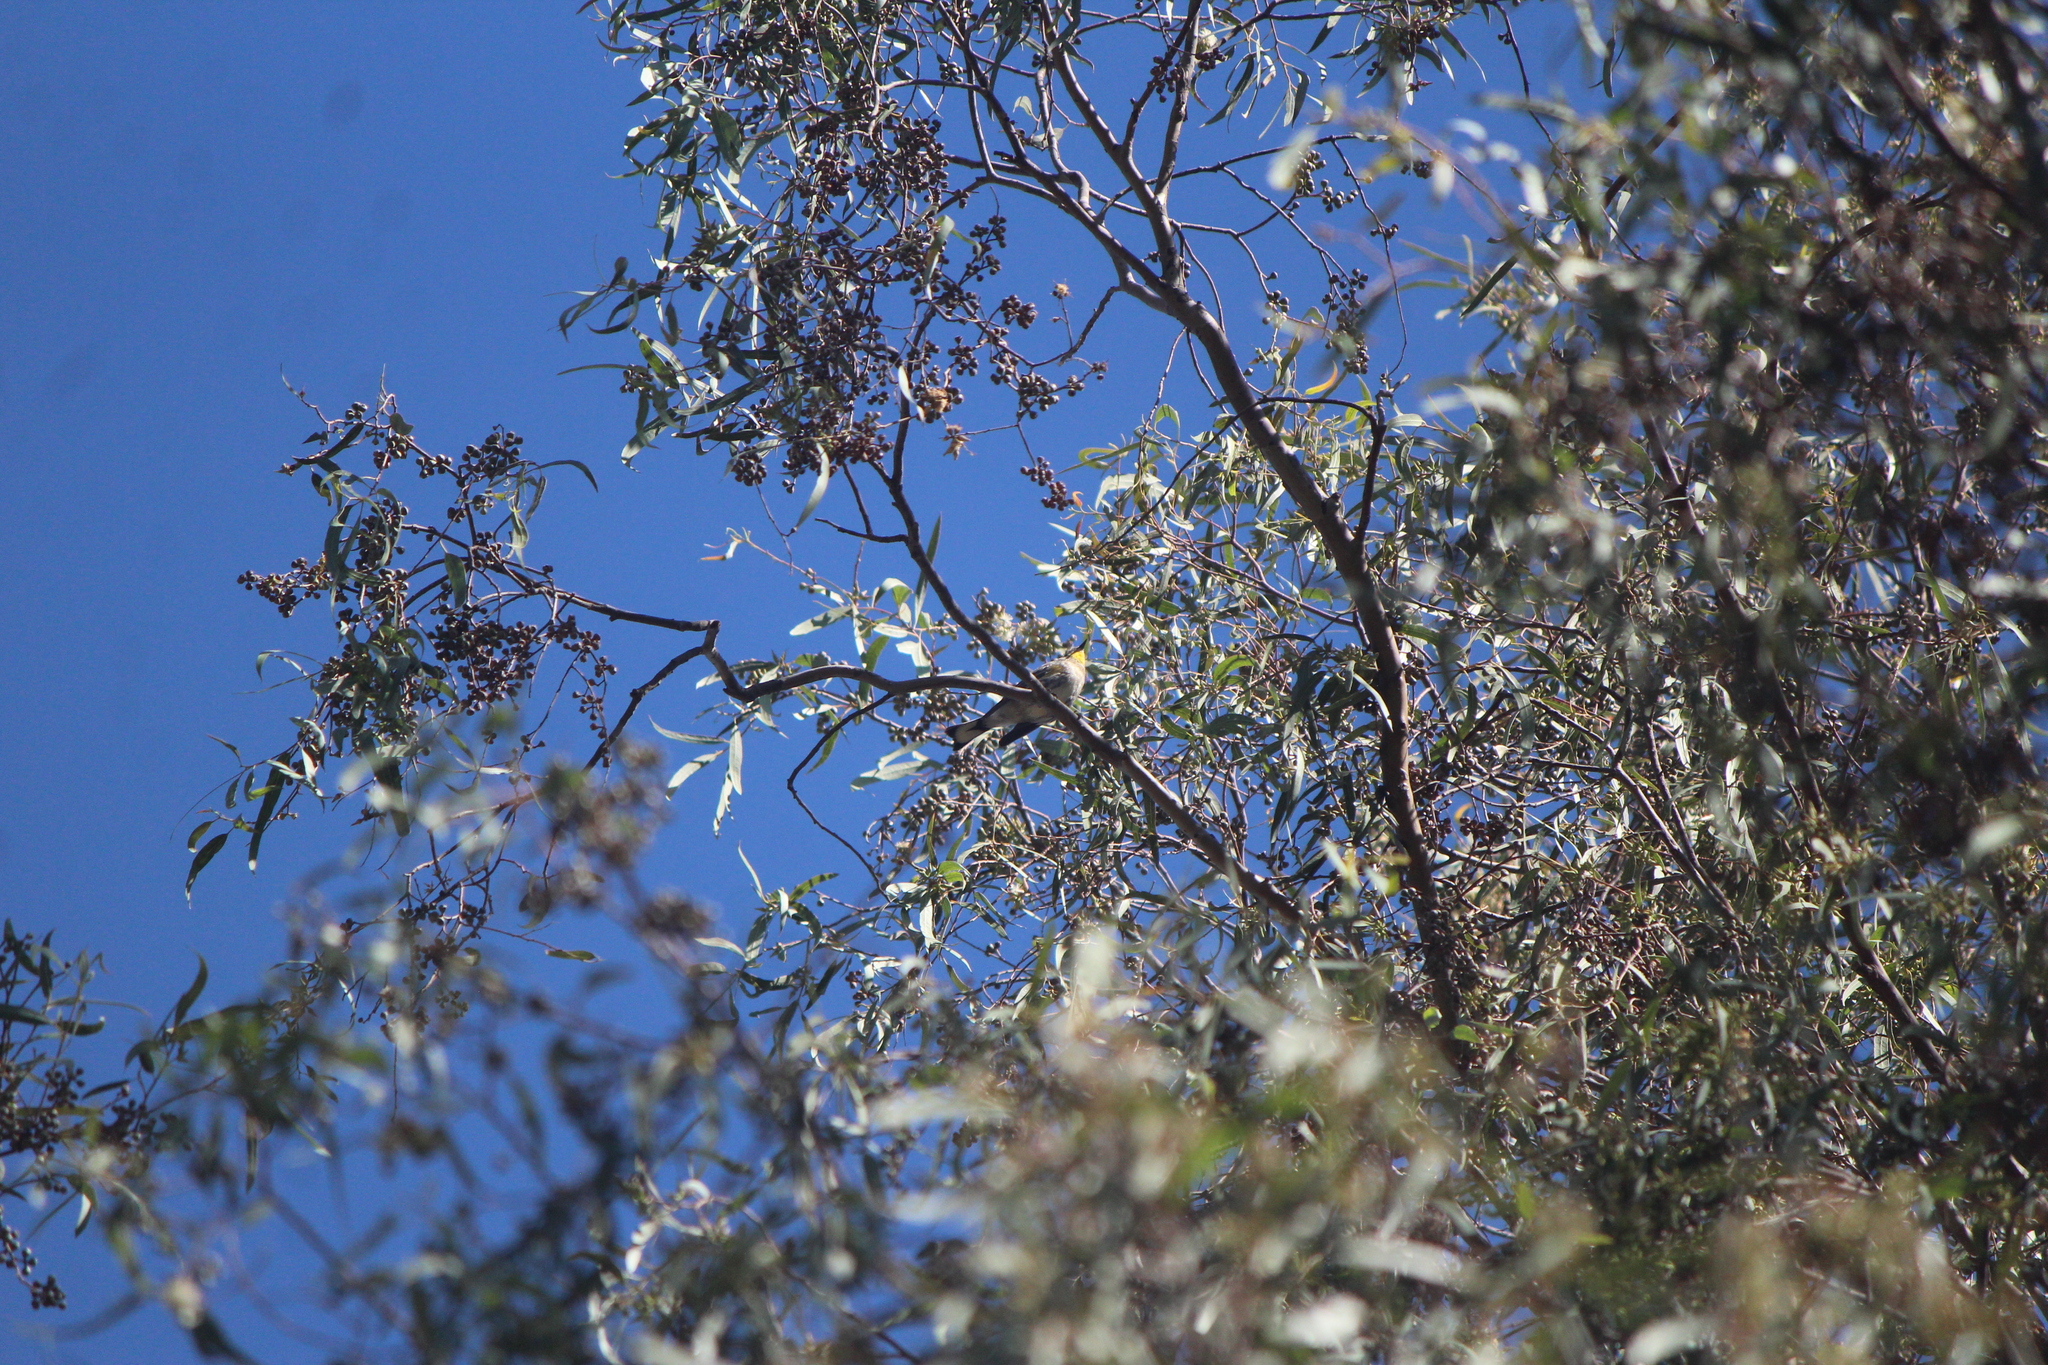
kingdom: Animalia
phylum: Chordata
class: Aves
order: Passeriformes
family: Parulidae
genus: Setophaga
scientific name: Setophaga auduboni
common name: Audubon's warbler
